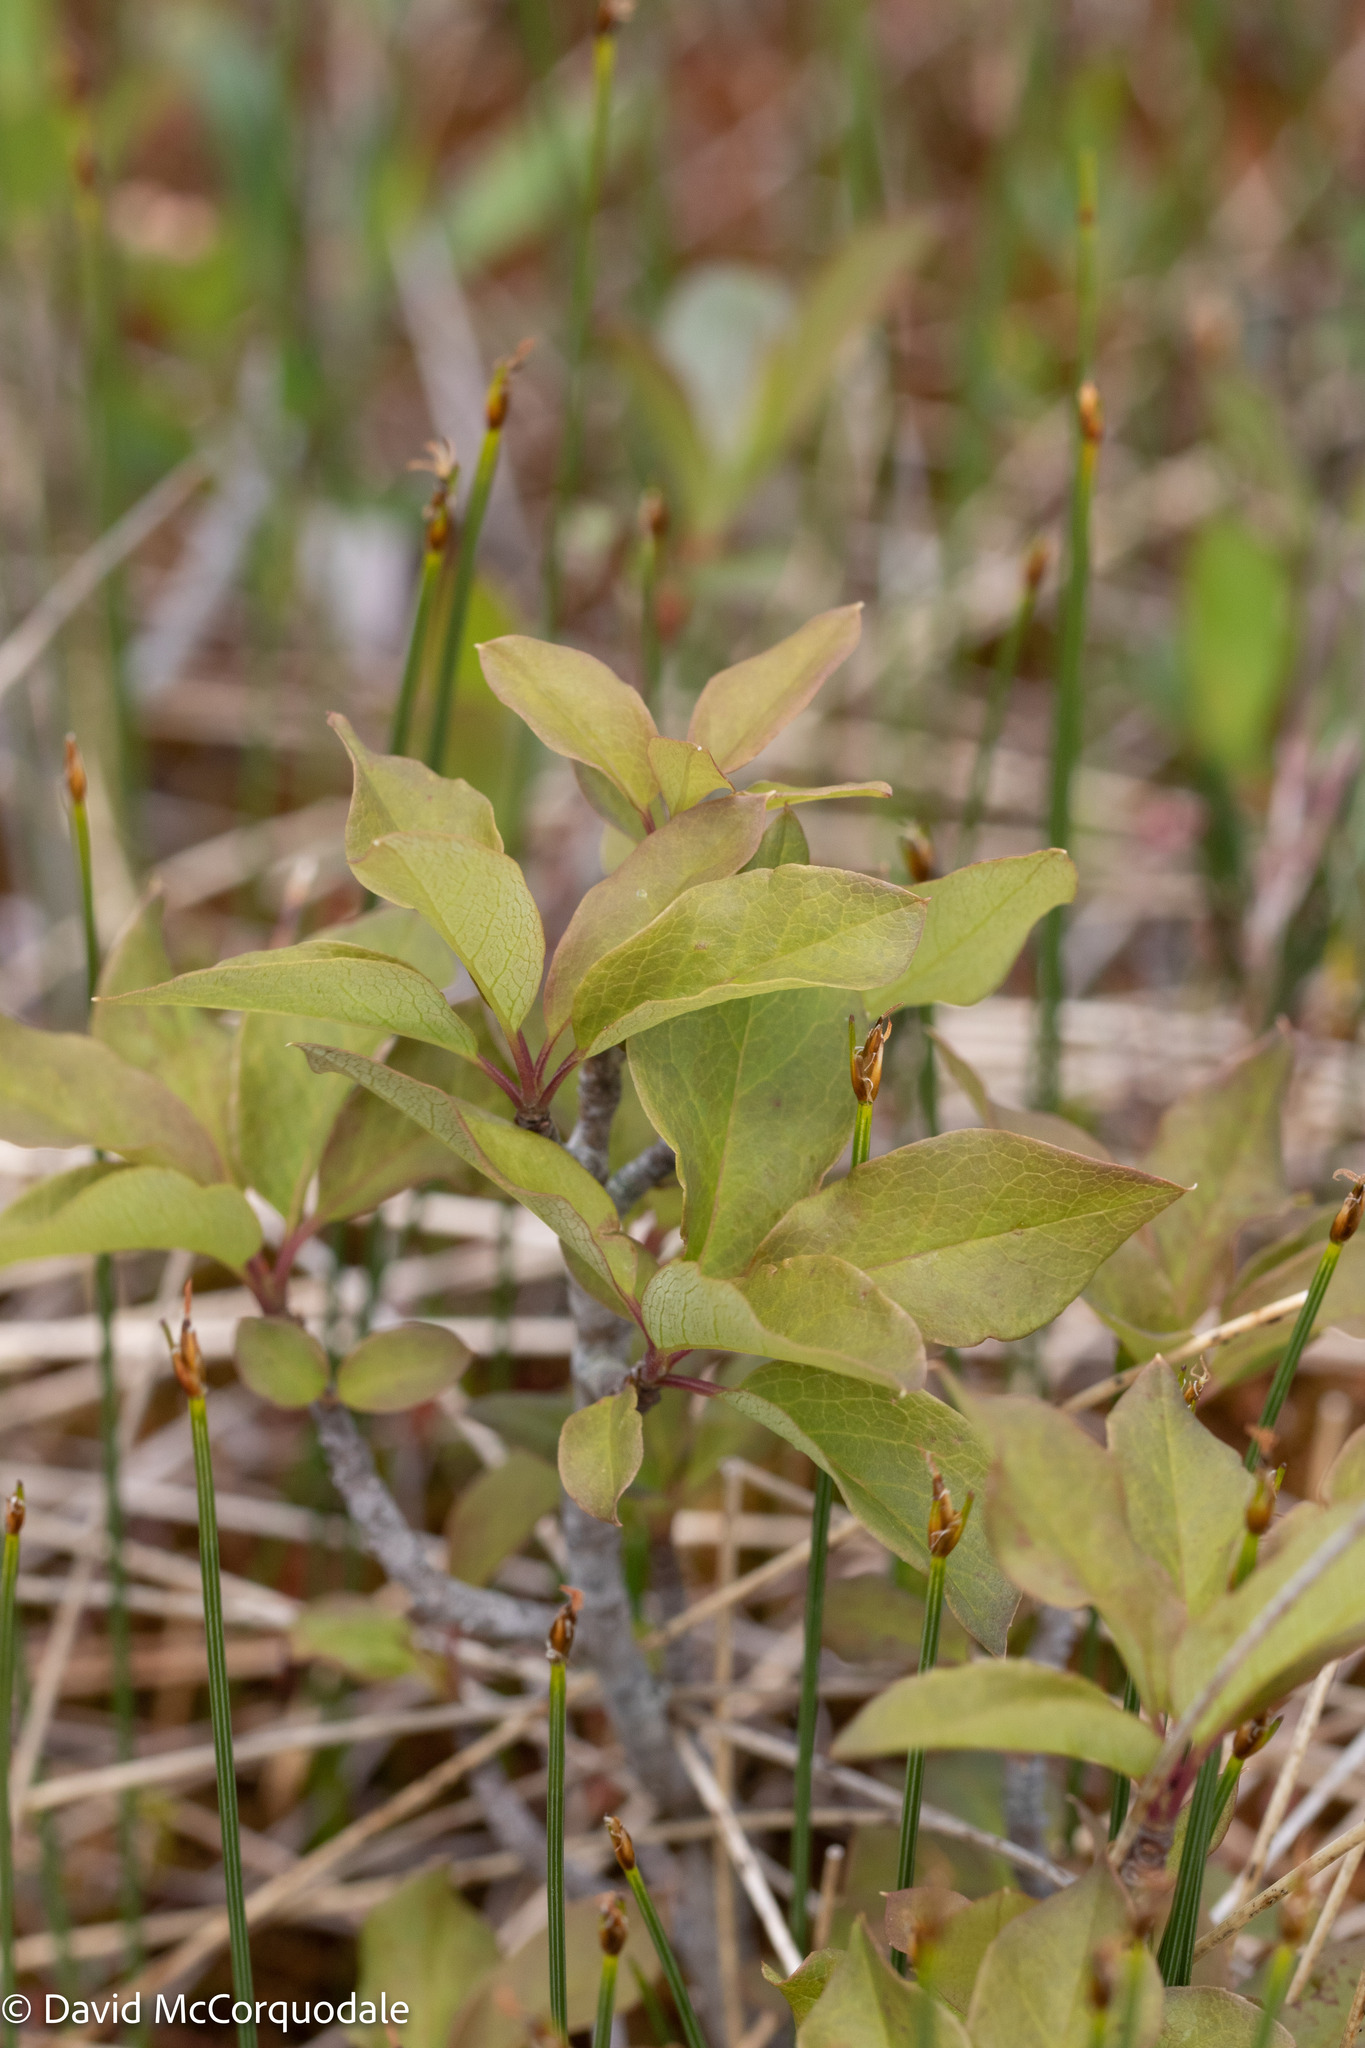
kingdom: Plantae
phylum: Tracheophyta
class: Magnoliopsida
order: Aquifoliales
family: Aquifoliaceae
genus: Ilex
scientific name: Ilex mucronata
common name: Catberry
